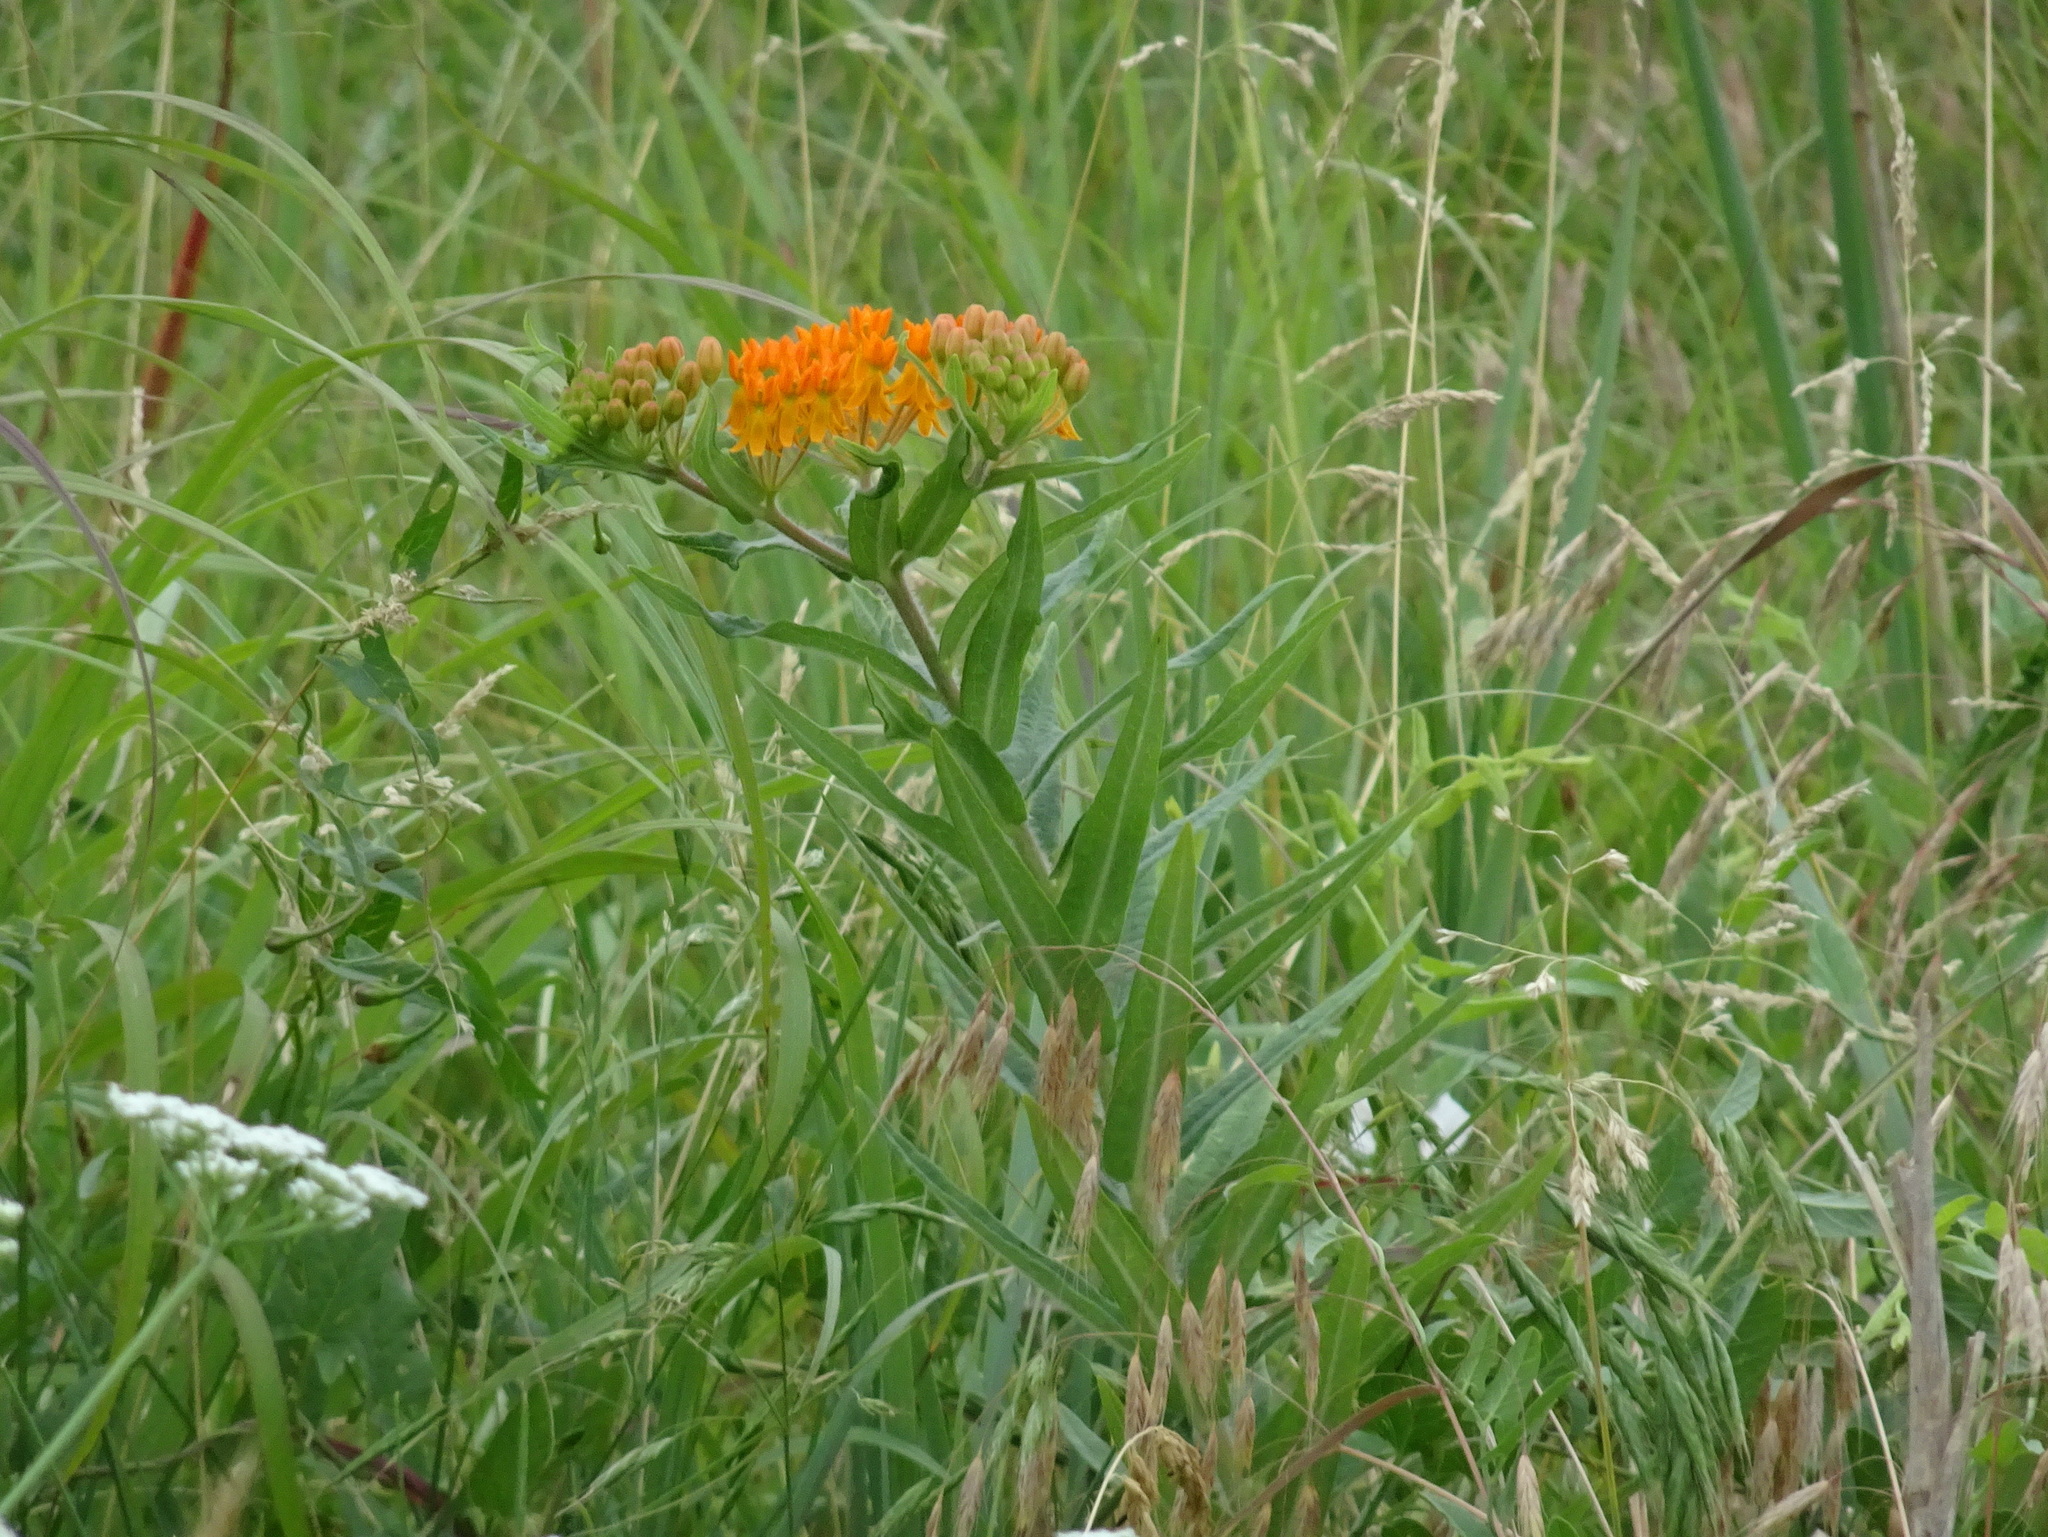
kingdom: Plantae
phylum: Tracheophyta
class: Magnoliopsida
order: Gentianales
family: Apocynaceae
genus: Asclepias
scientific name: Asclepias tuberosa
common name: Butterfly milkweed
